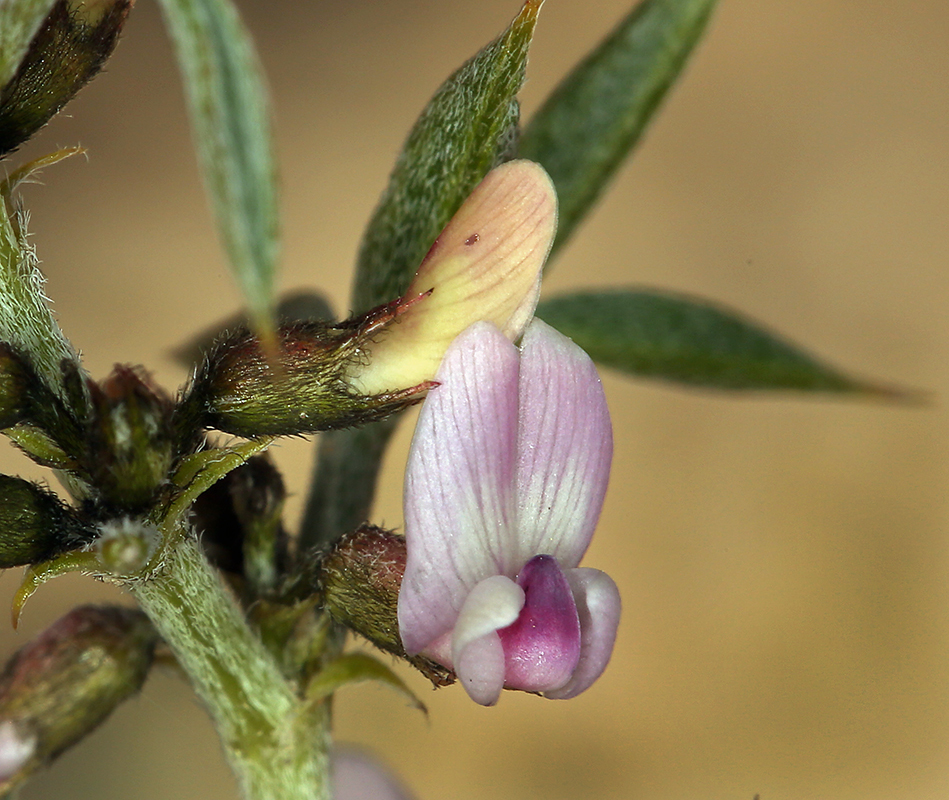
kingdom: Plantae
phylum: Tracheophyta
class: Magnoliopsida
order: Fabales
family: Fabaceae
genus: Astragalus
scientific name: Astragalus kentrophyta
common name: Prickly milk-vetch
